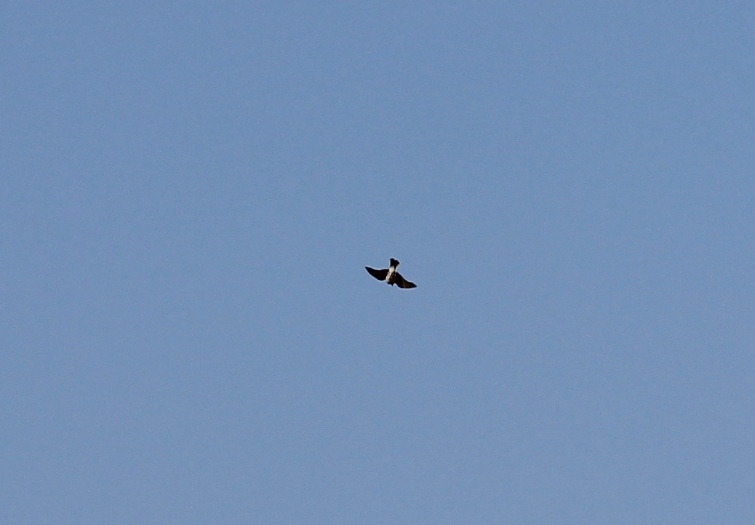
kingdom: Animalia
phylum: Chordata
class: Aves
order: Passeriformes
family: Alaudidae
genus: Alauda
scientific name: Alauda arvensis
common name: Eurasian skylark
